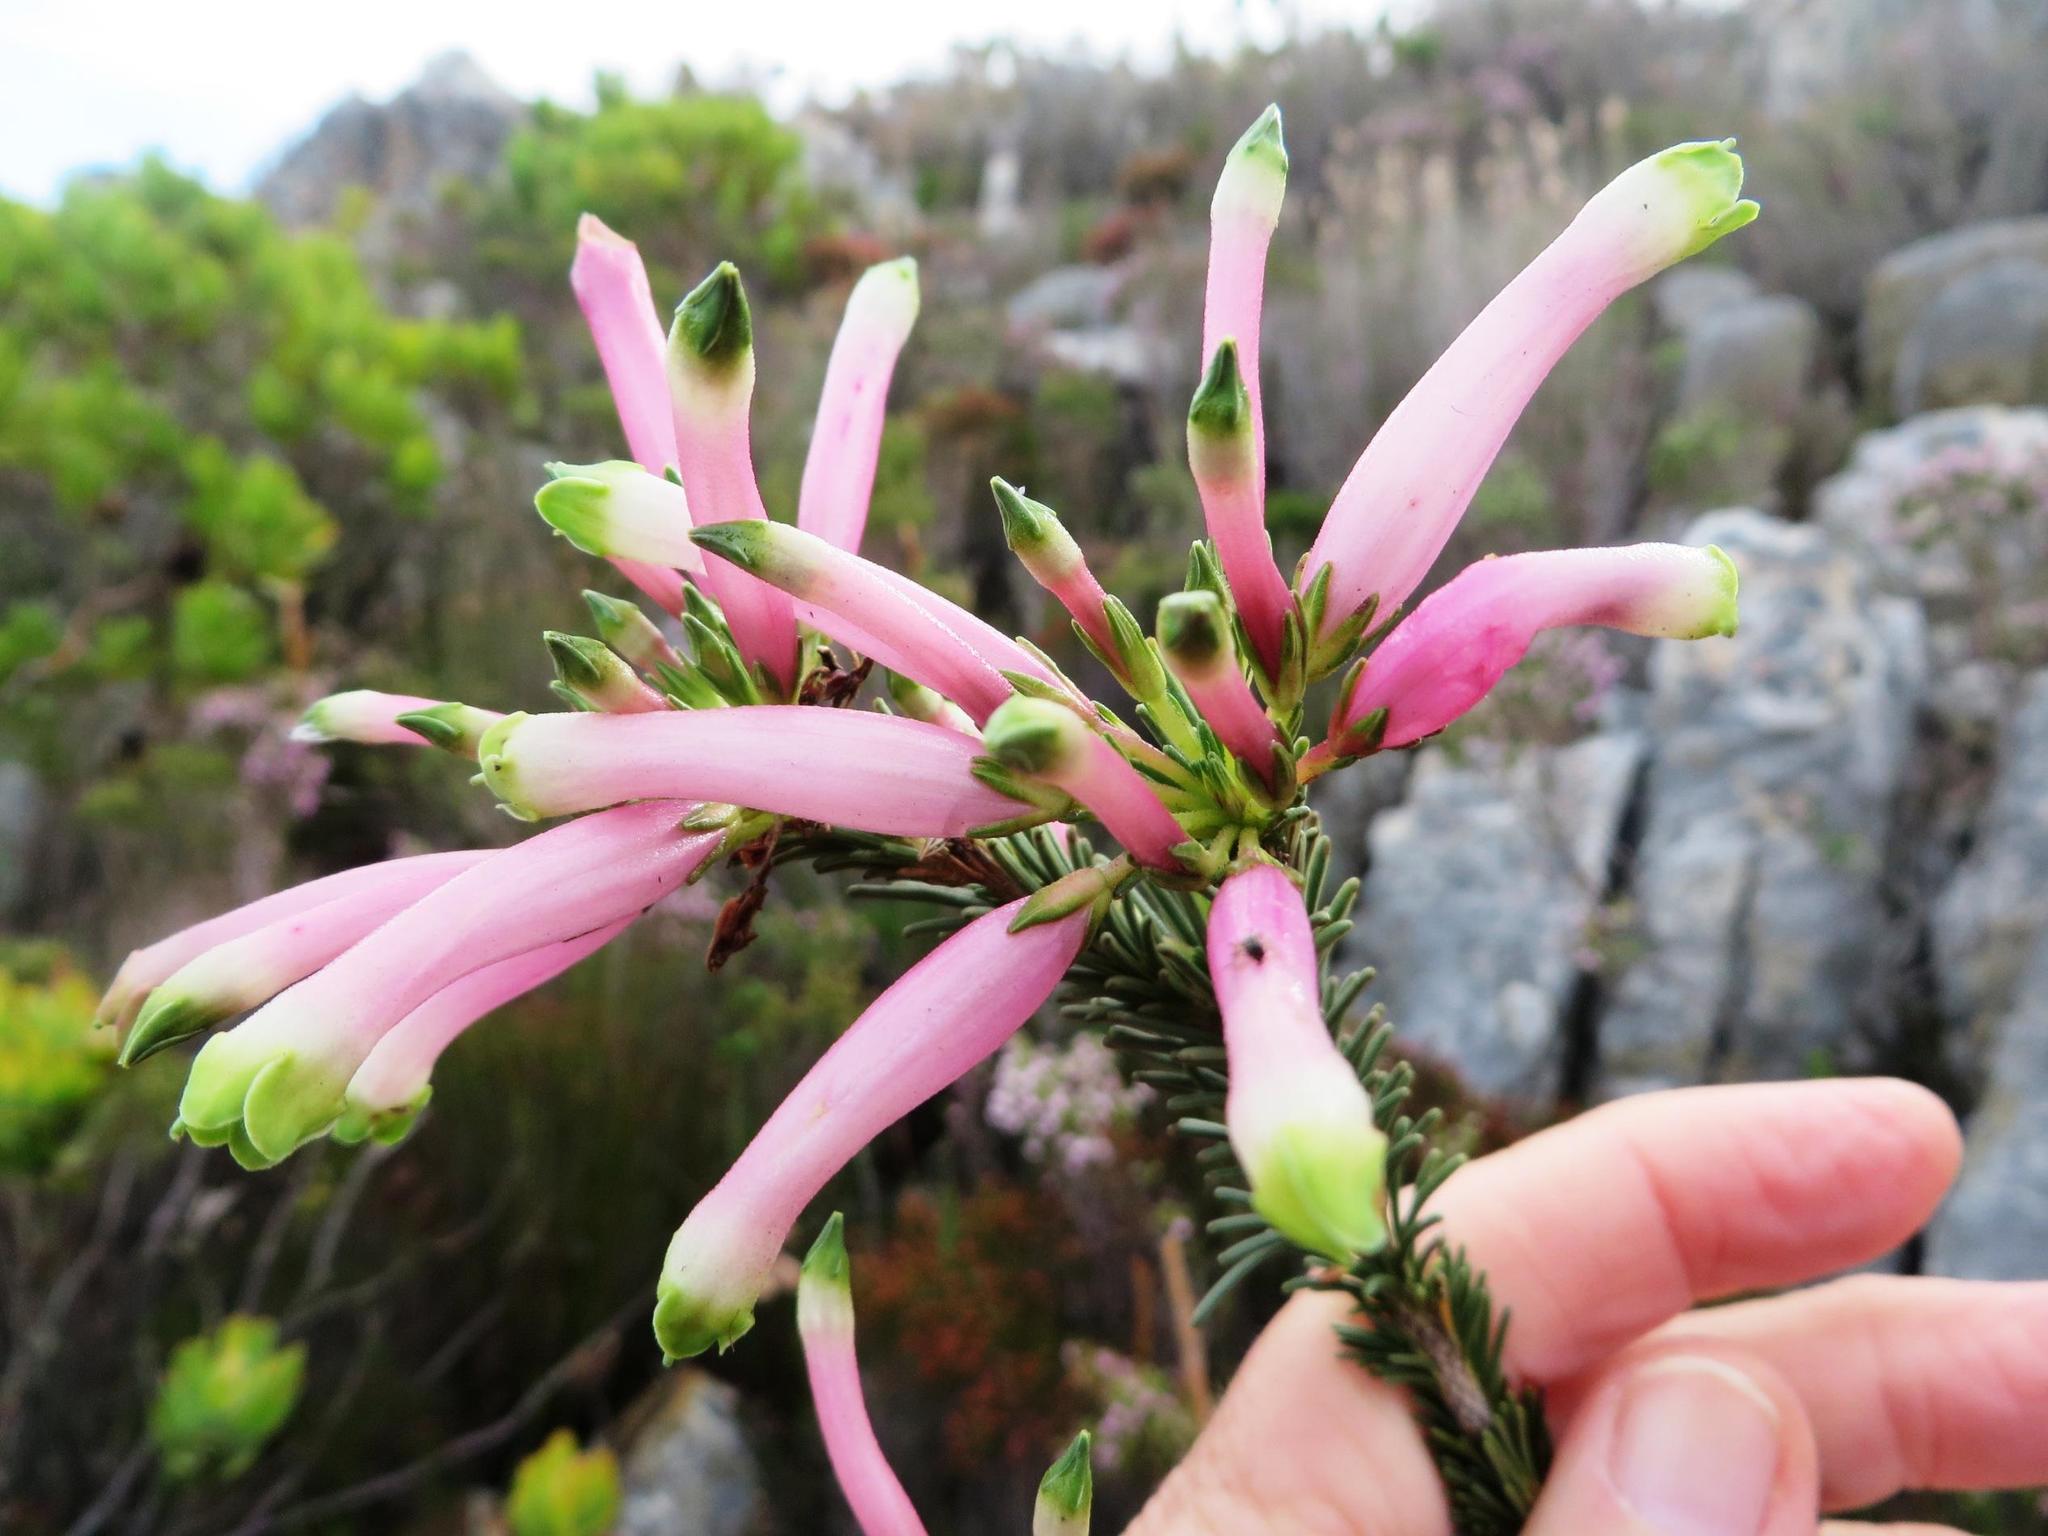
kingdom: Plantae
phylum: Tracheophyta
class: Magnoliopsida
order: Ericales
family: Ericaceae
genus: Erica
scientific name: Erica fascicularis
